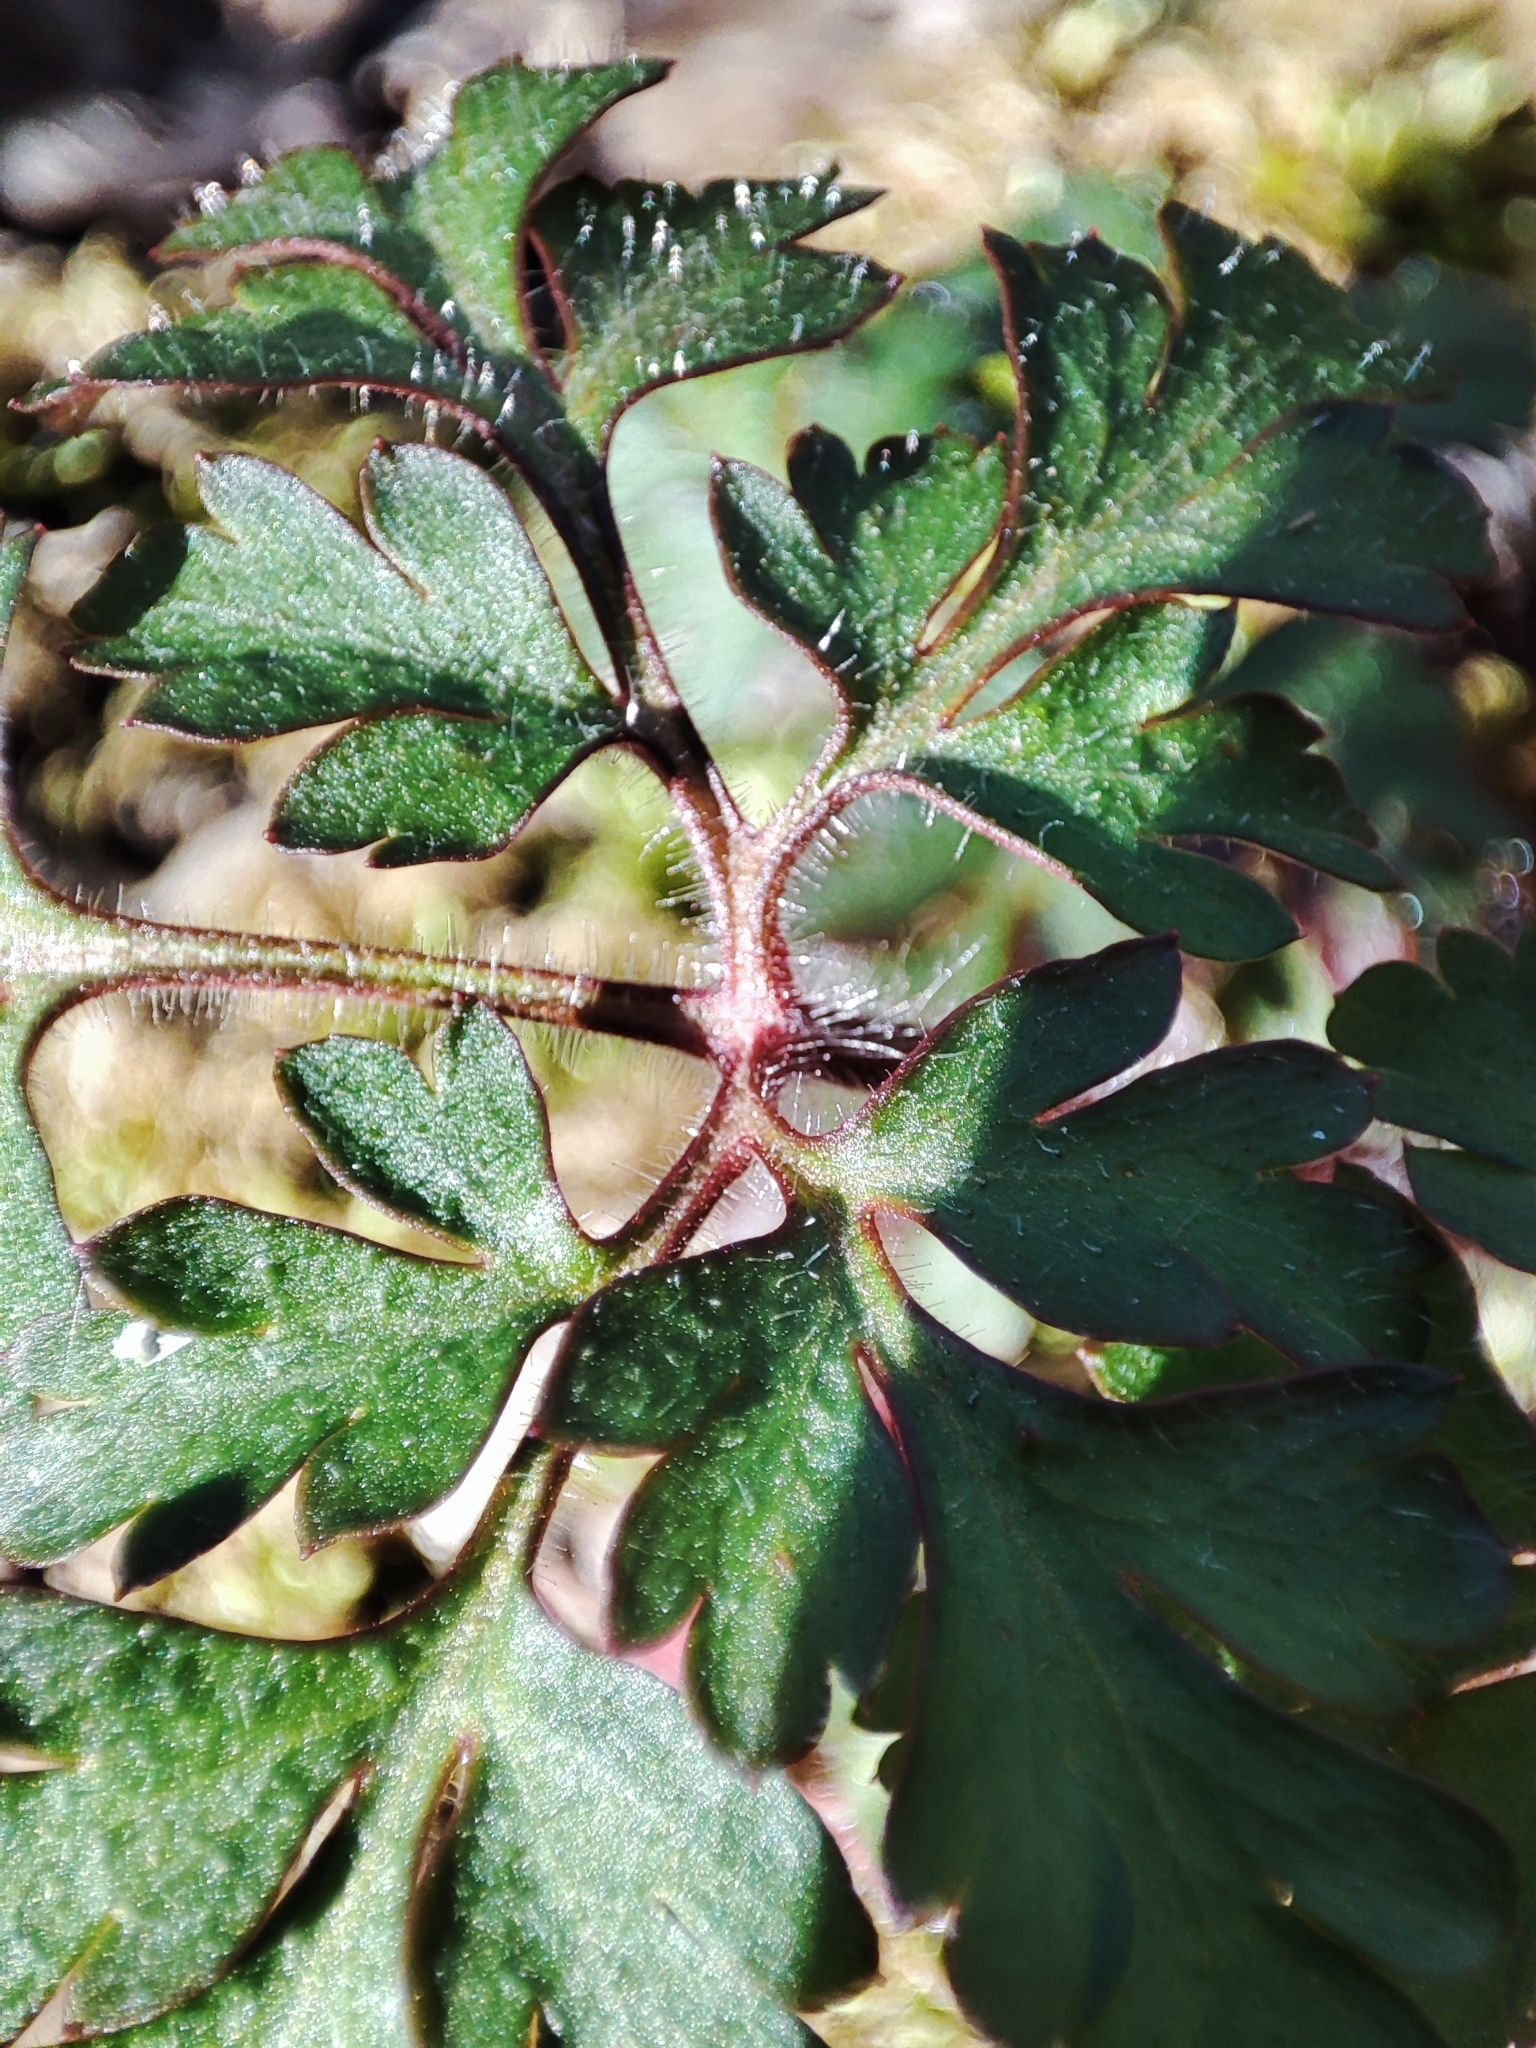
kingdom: Plantae
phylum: Tracheophyta
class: Magnoliopsida
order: Geraniales
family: Geraniaceae
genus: Geranium
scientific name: Geranium robertianum
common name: Herb-robert
